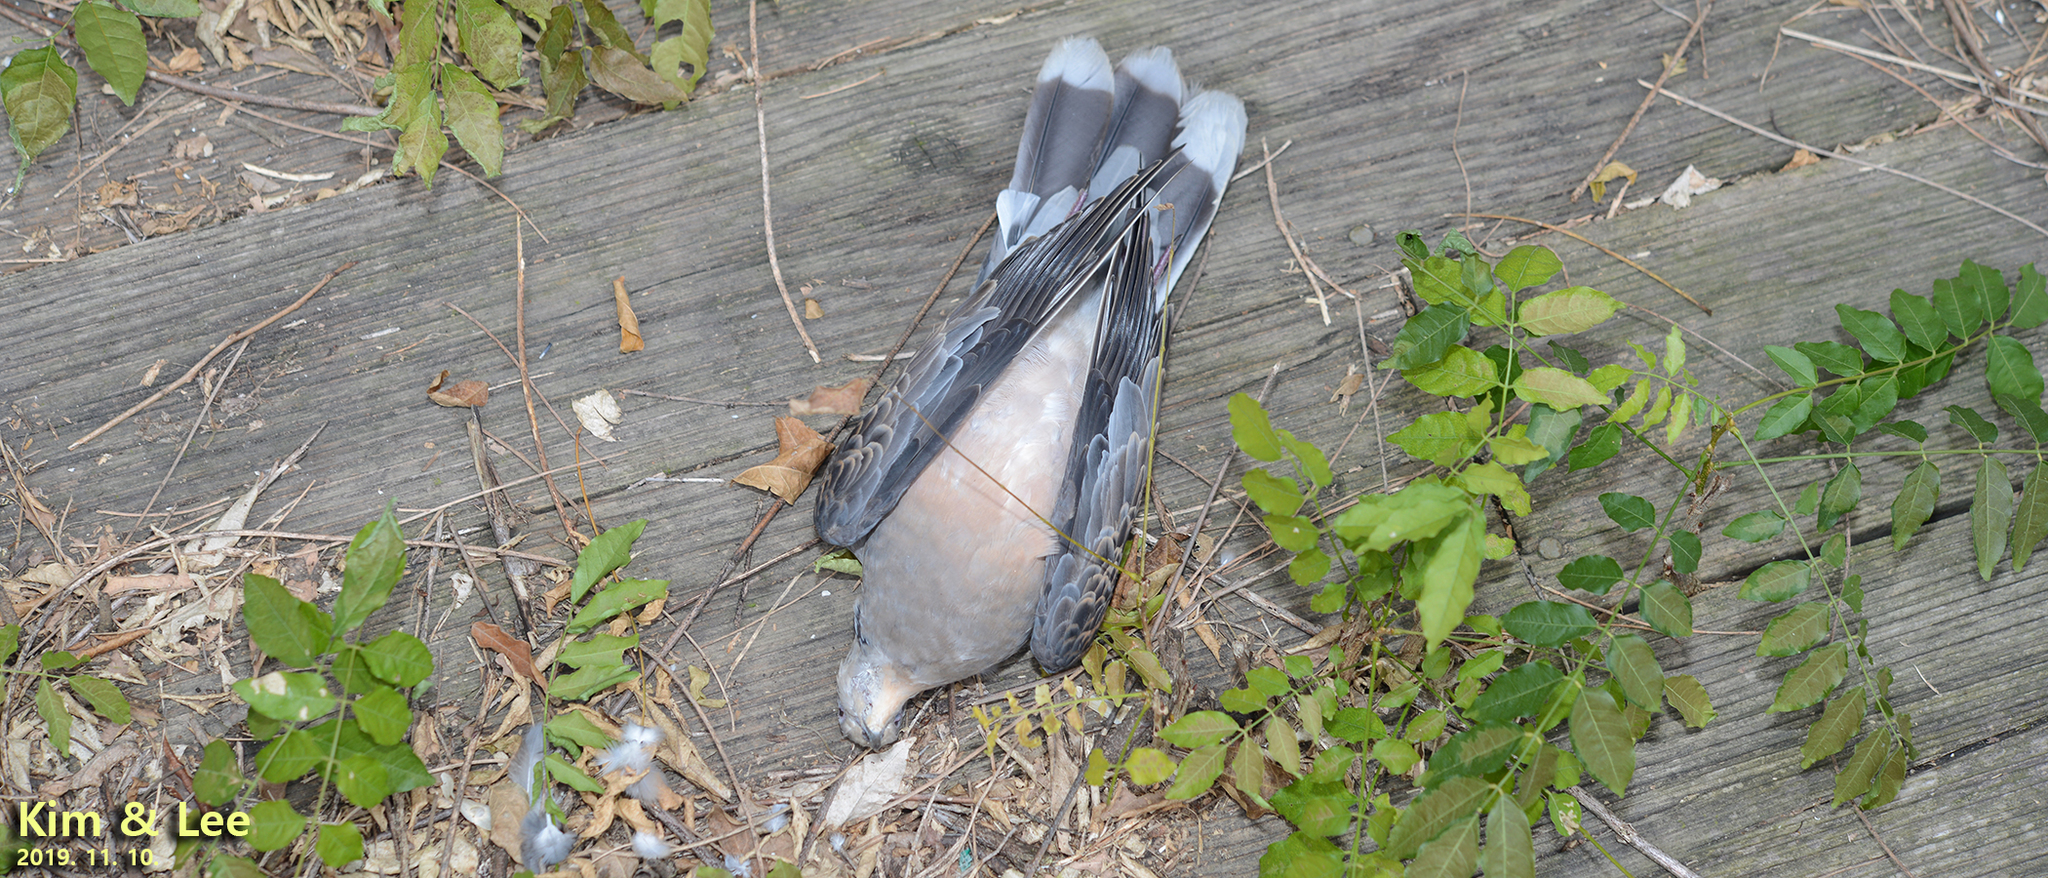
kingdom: Animalia
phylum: Chordata
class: Aves
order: Columbiformes
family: Columbidae
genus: Streptopelia
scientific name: Streptopelia orientalis
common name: Oriental turtle dove
